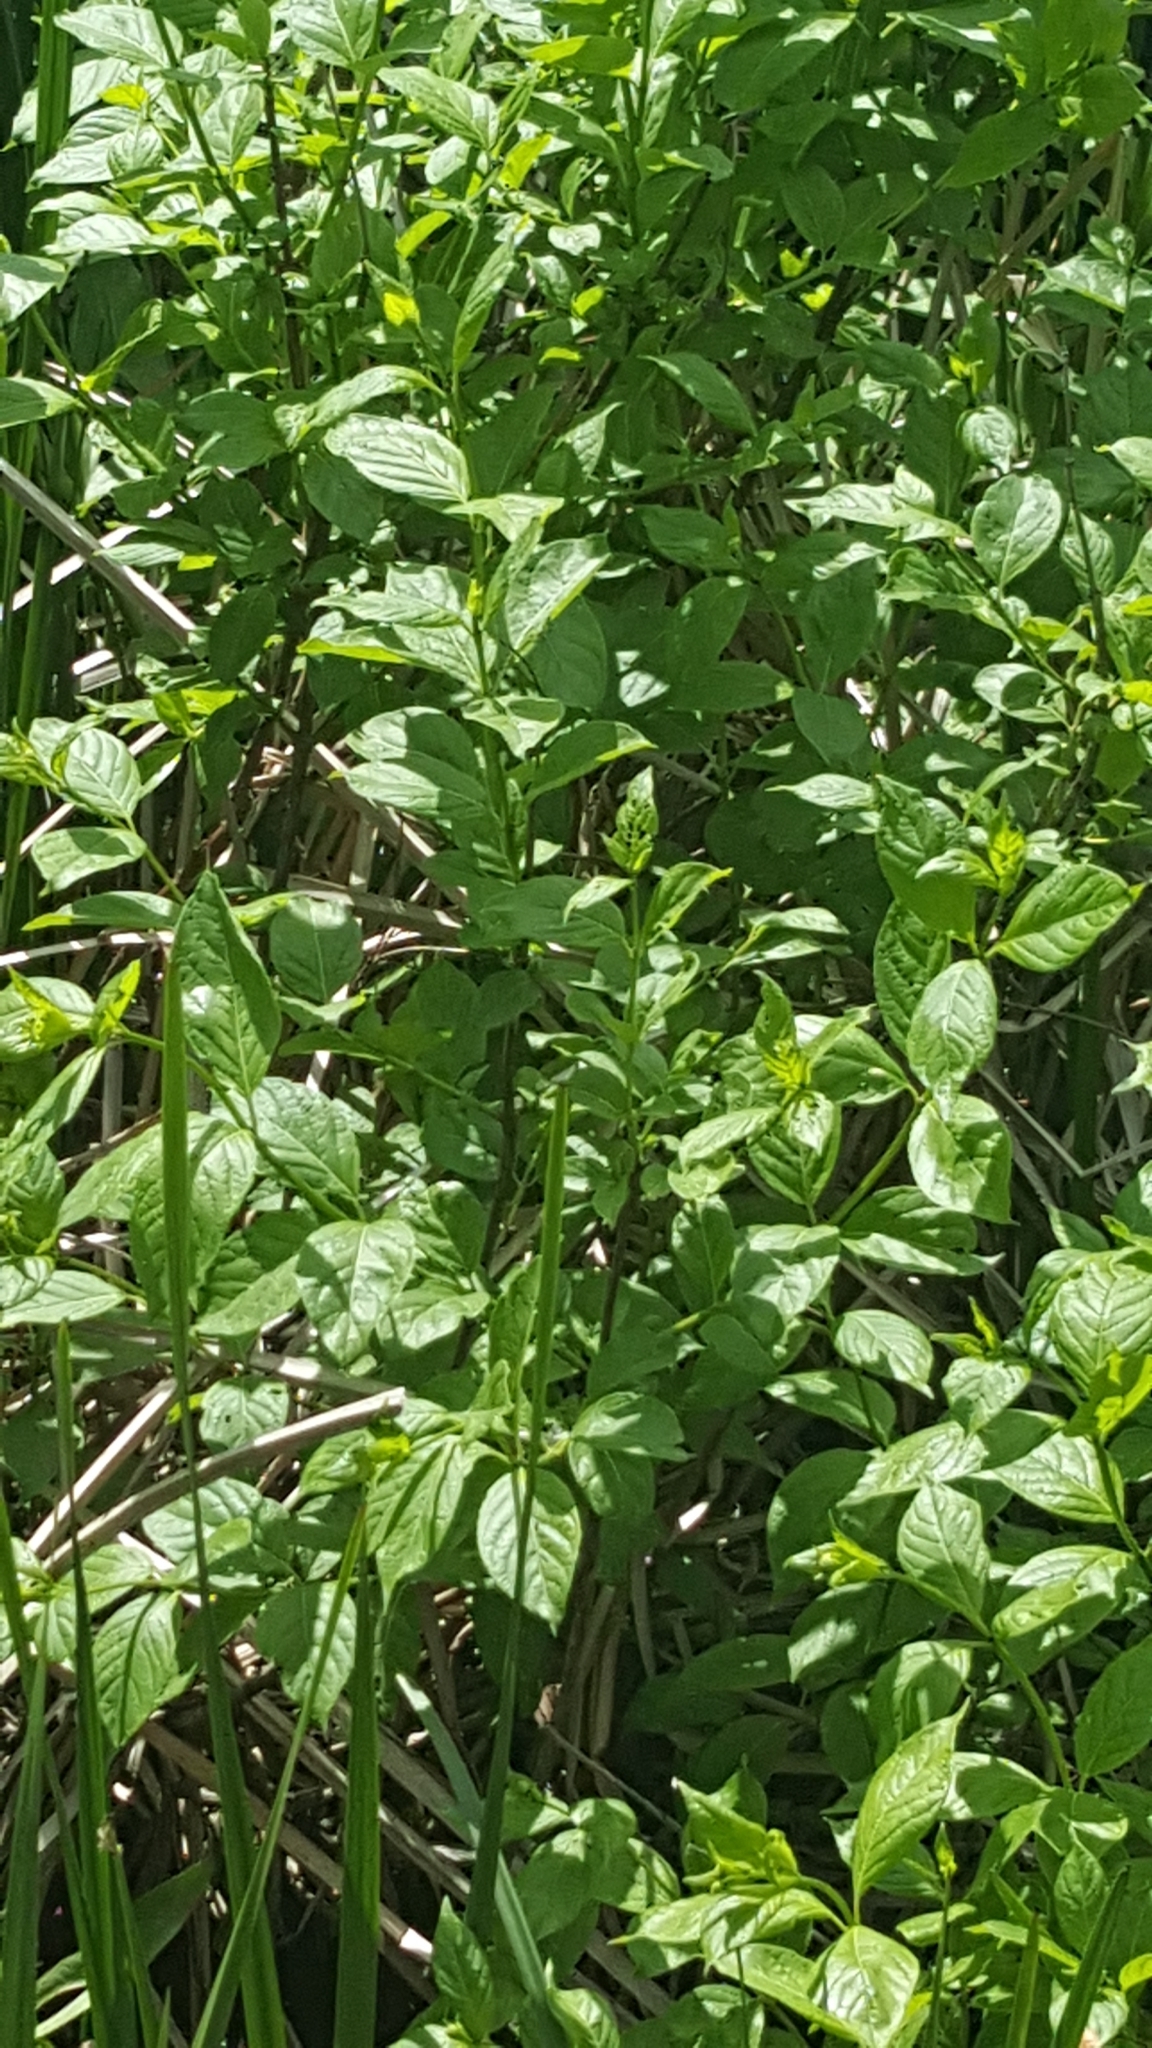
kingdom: Plantae
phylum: Tracheophyta
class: Magnoliopsida
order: Gentianales
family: Rubiaceae
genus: Cephalanthus
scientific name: Cephalanthus occidentalis
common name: Button-willow
